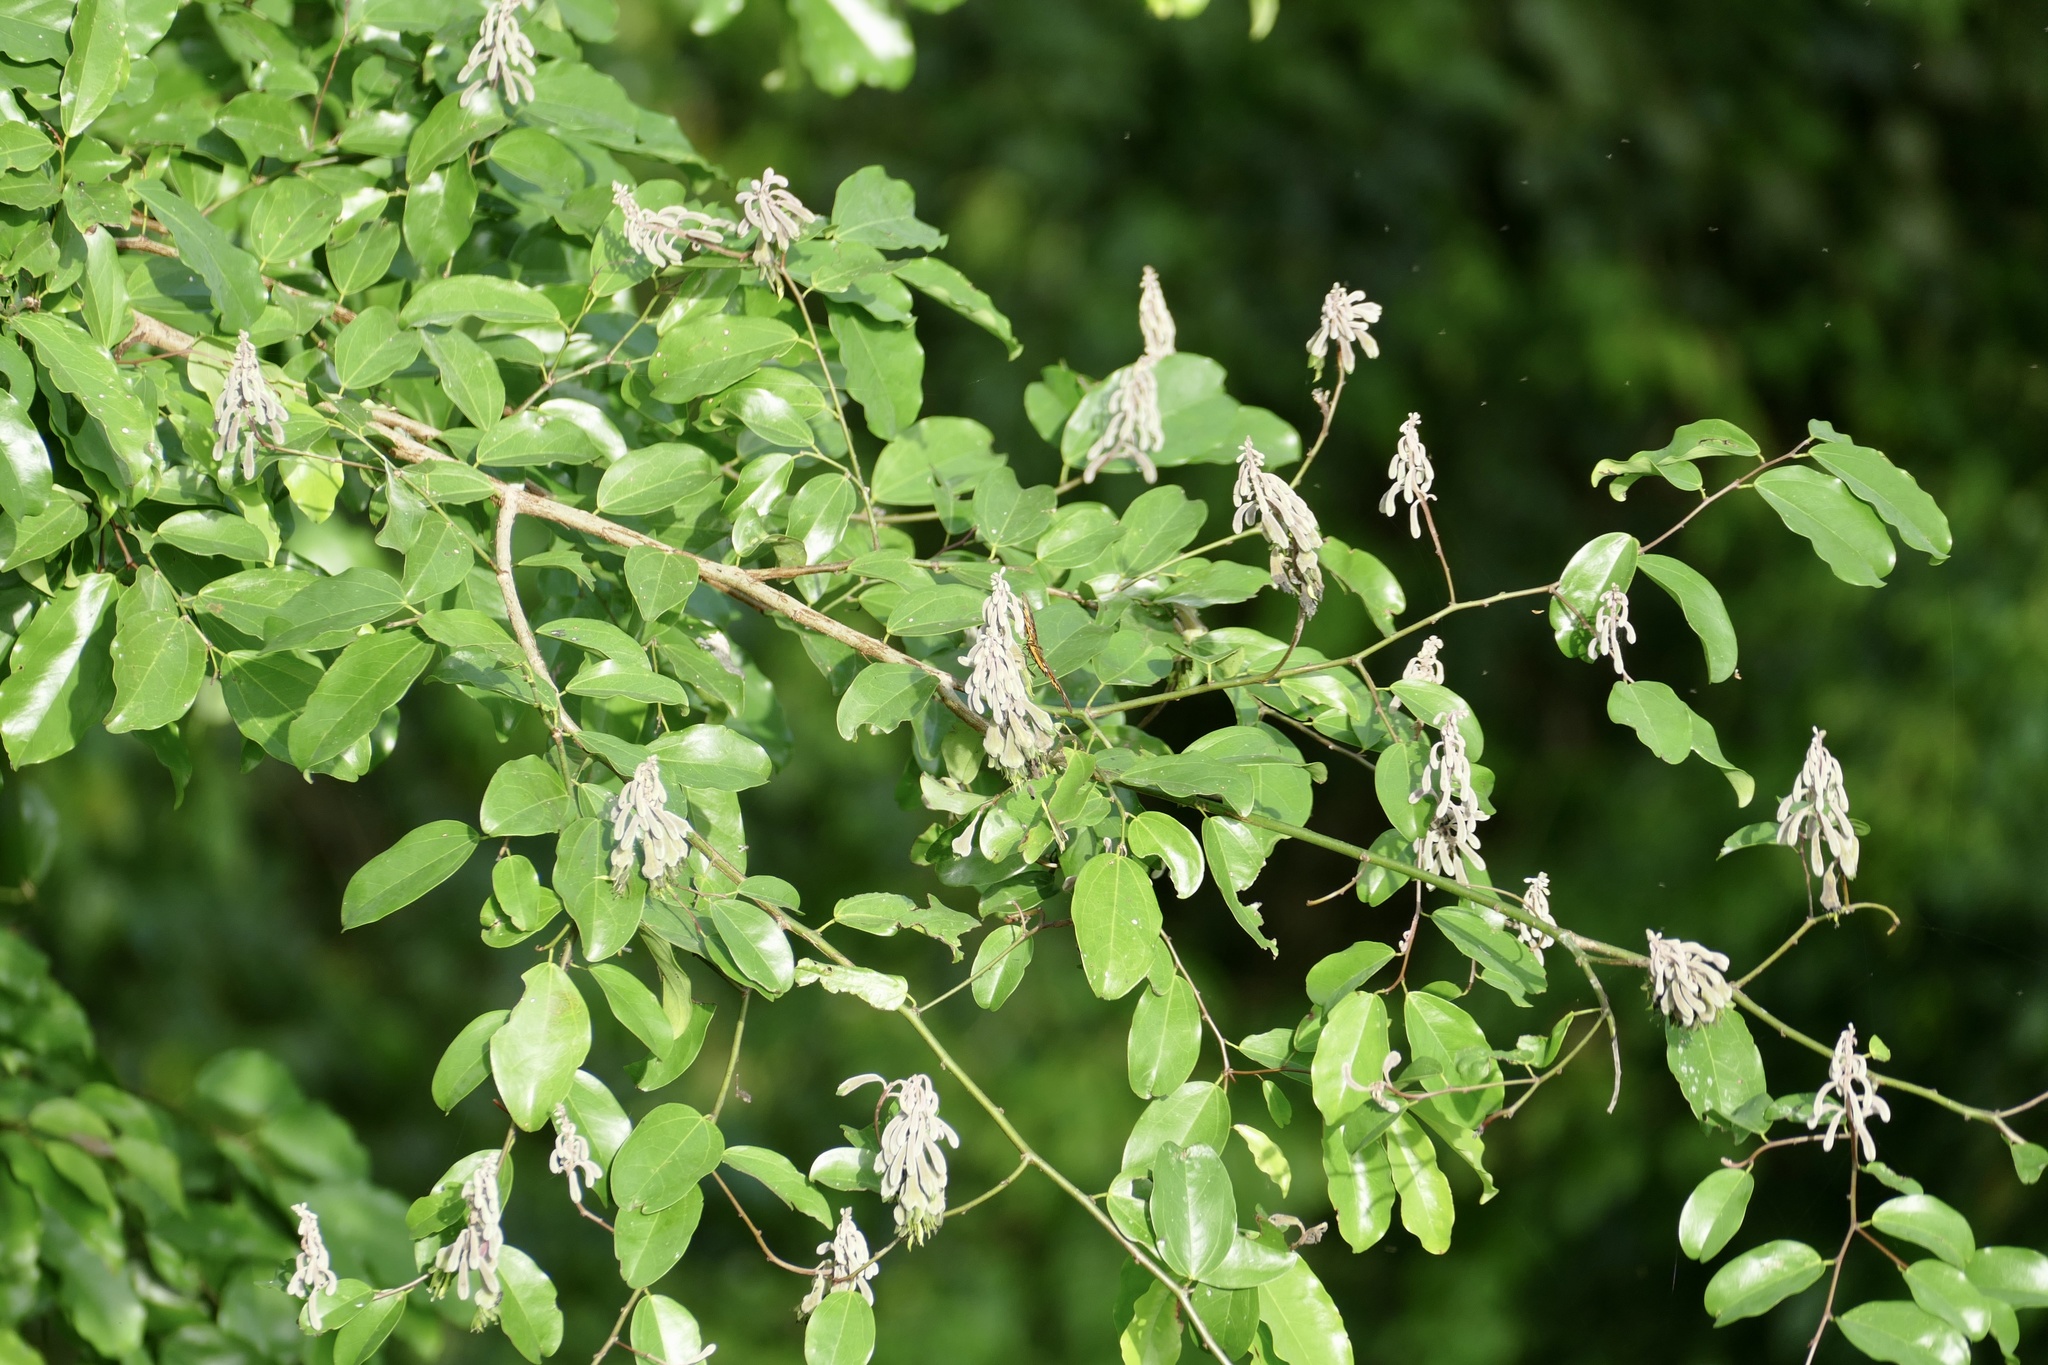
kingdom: Plantae
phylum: Tracheophyta
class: Magnoliopsida
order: Fabales
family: Fabaceae
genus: Griffonia
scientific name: Griffonia simplicifolia
